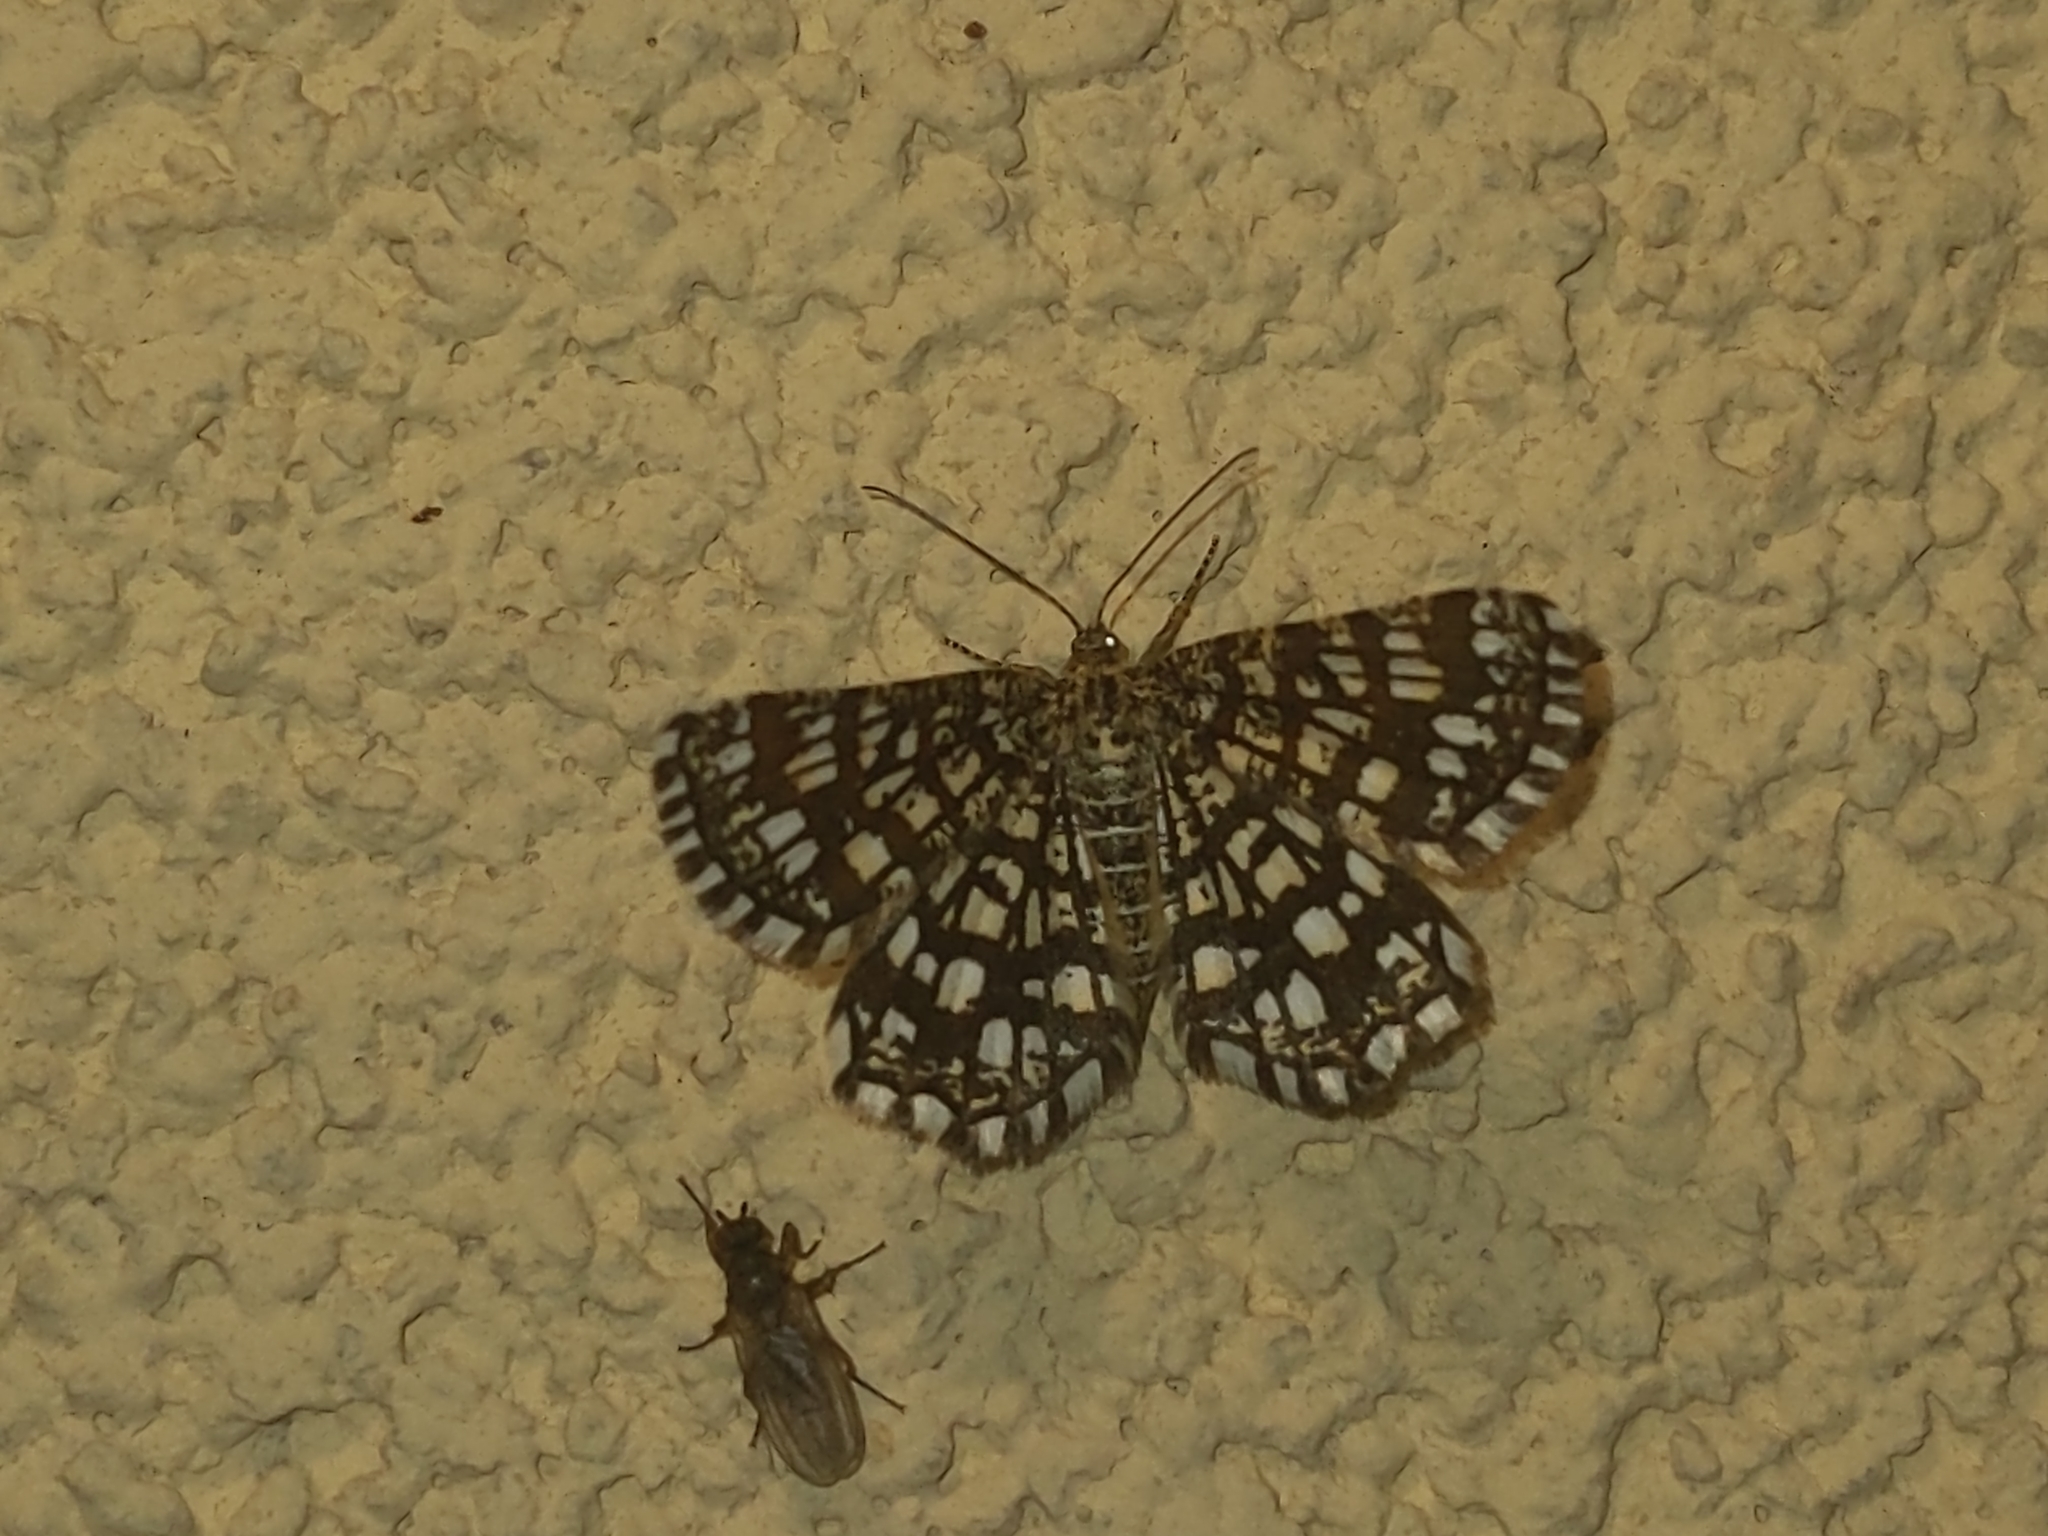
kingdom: Animalia
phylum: Arthropoda
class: Insecta
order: Lepidoptera
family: Geometridae
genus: Chiasmia
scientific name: Chiasmia clathrata
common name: Latticed heath
